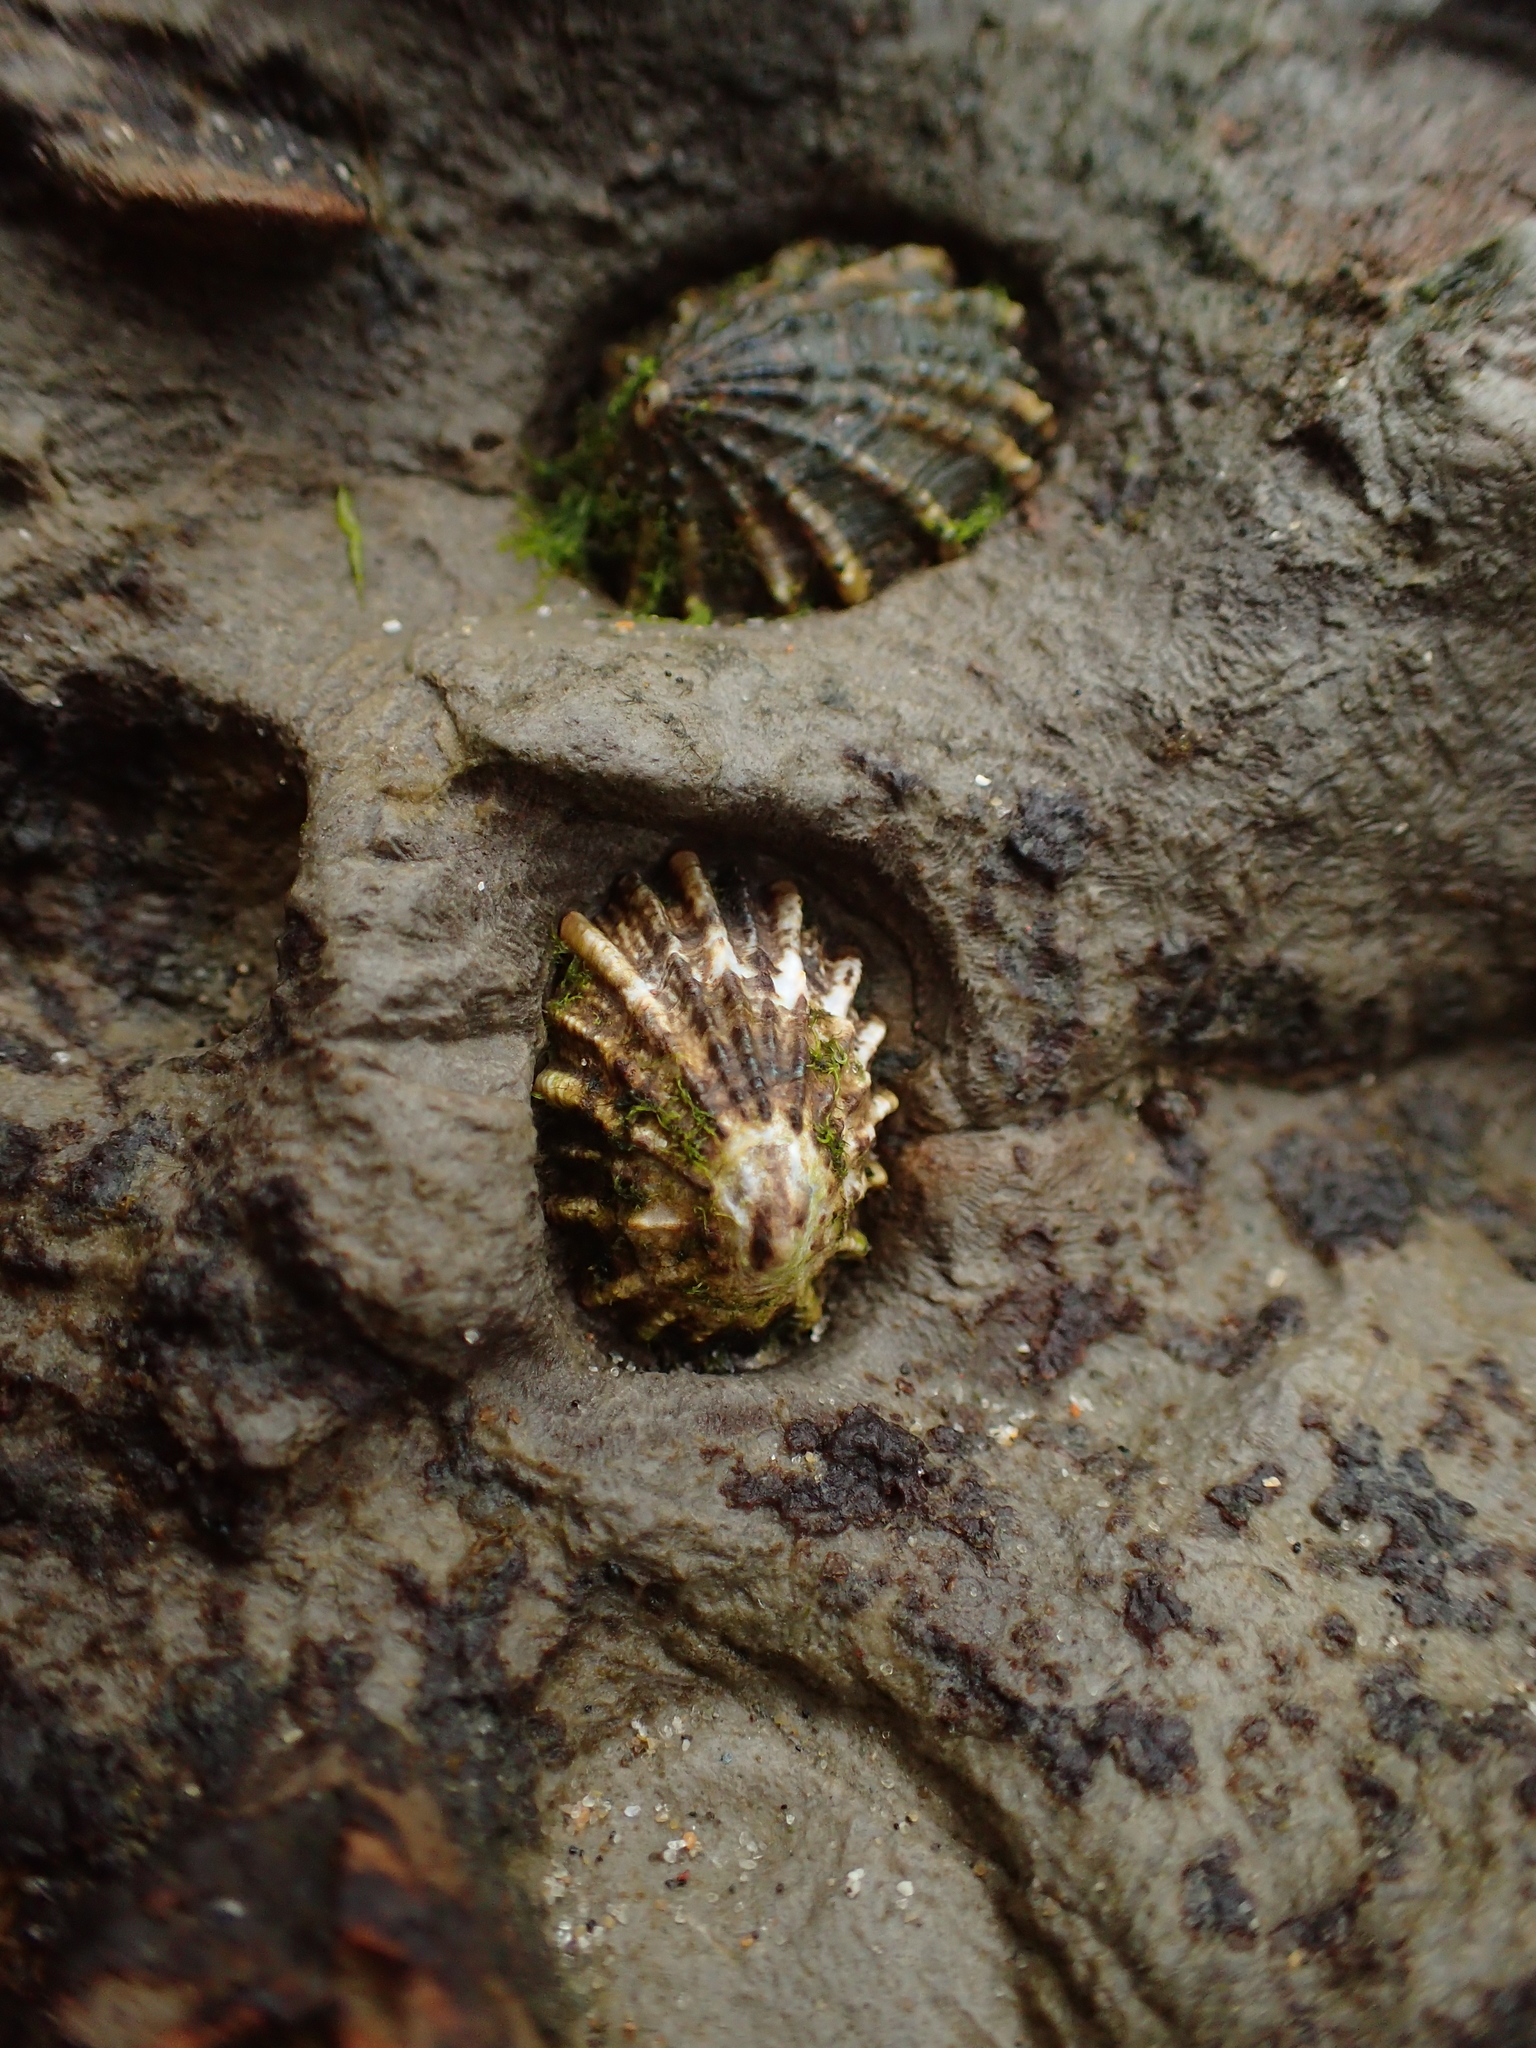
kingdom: Animalia
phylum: Mollusca
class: Gastropoda
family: Lottiidae
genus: Lottia
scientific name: Lottia scabra
